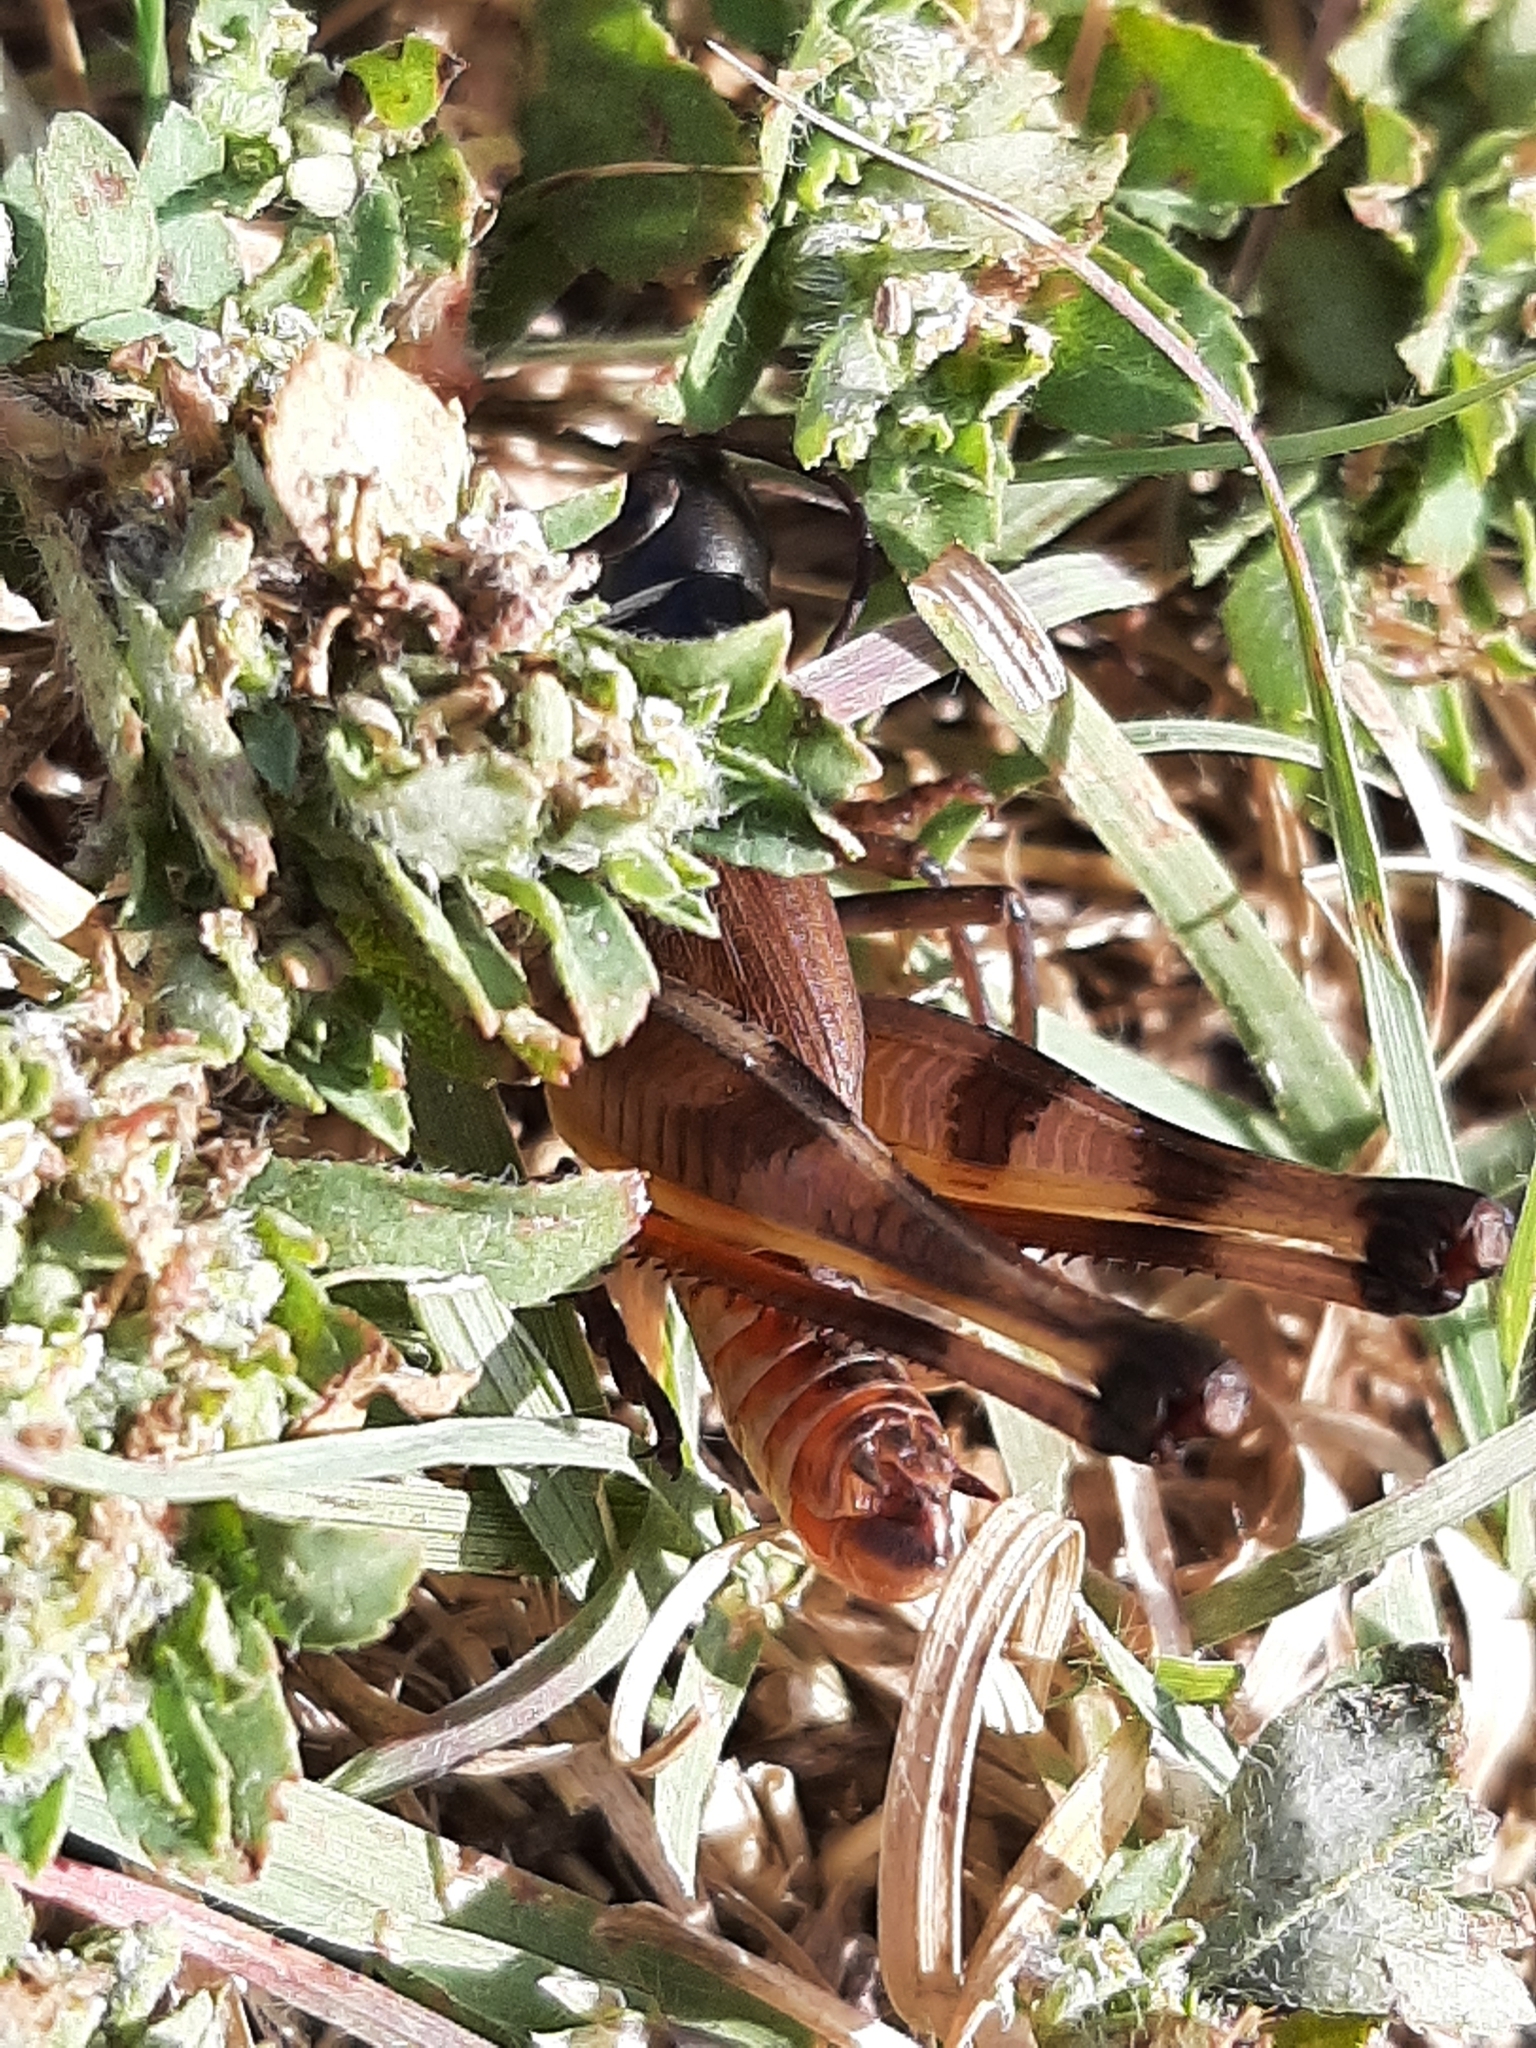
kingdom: Animalia
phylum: Arthropoda
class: Insecta
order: Orthoptera
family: Acrididae
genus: Boopedon
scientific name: Boopedon auriventris
